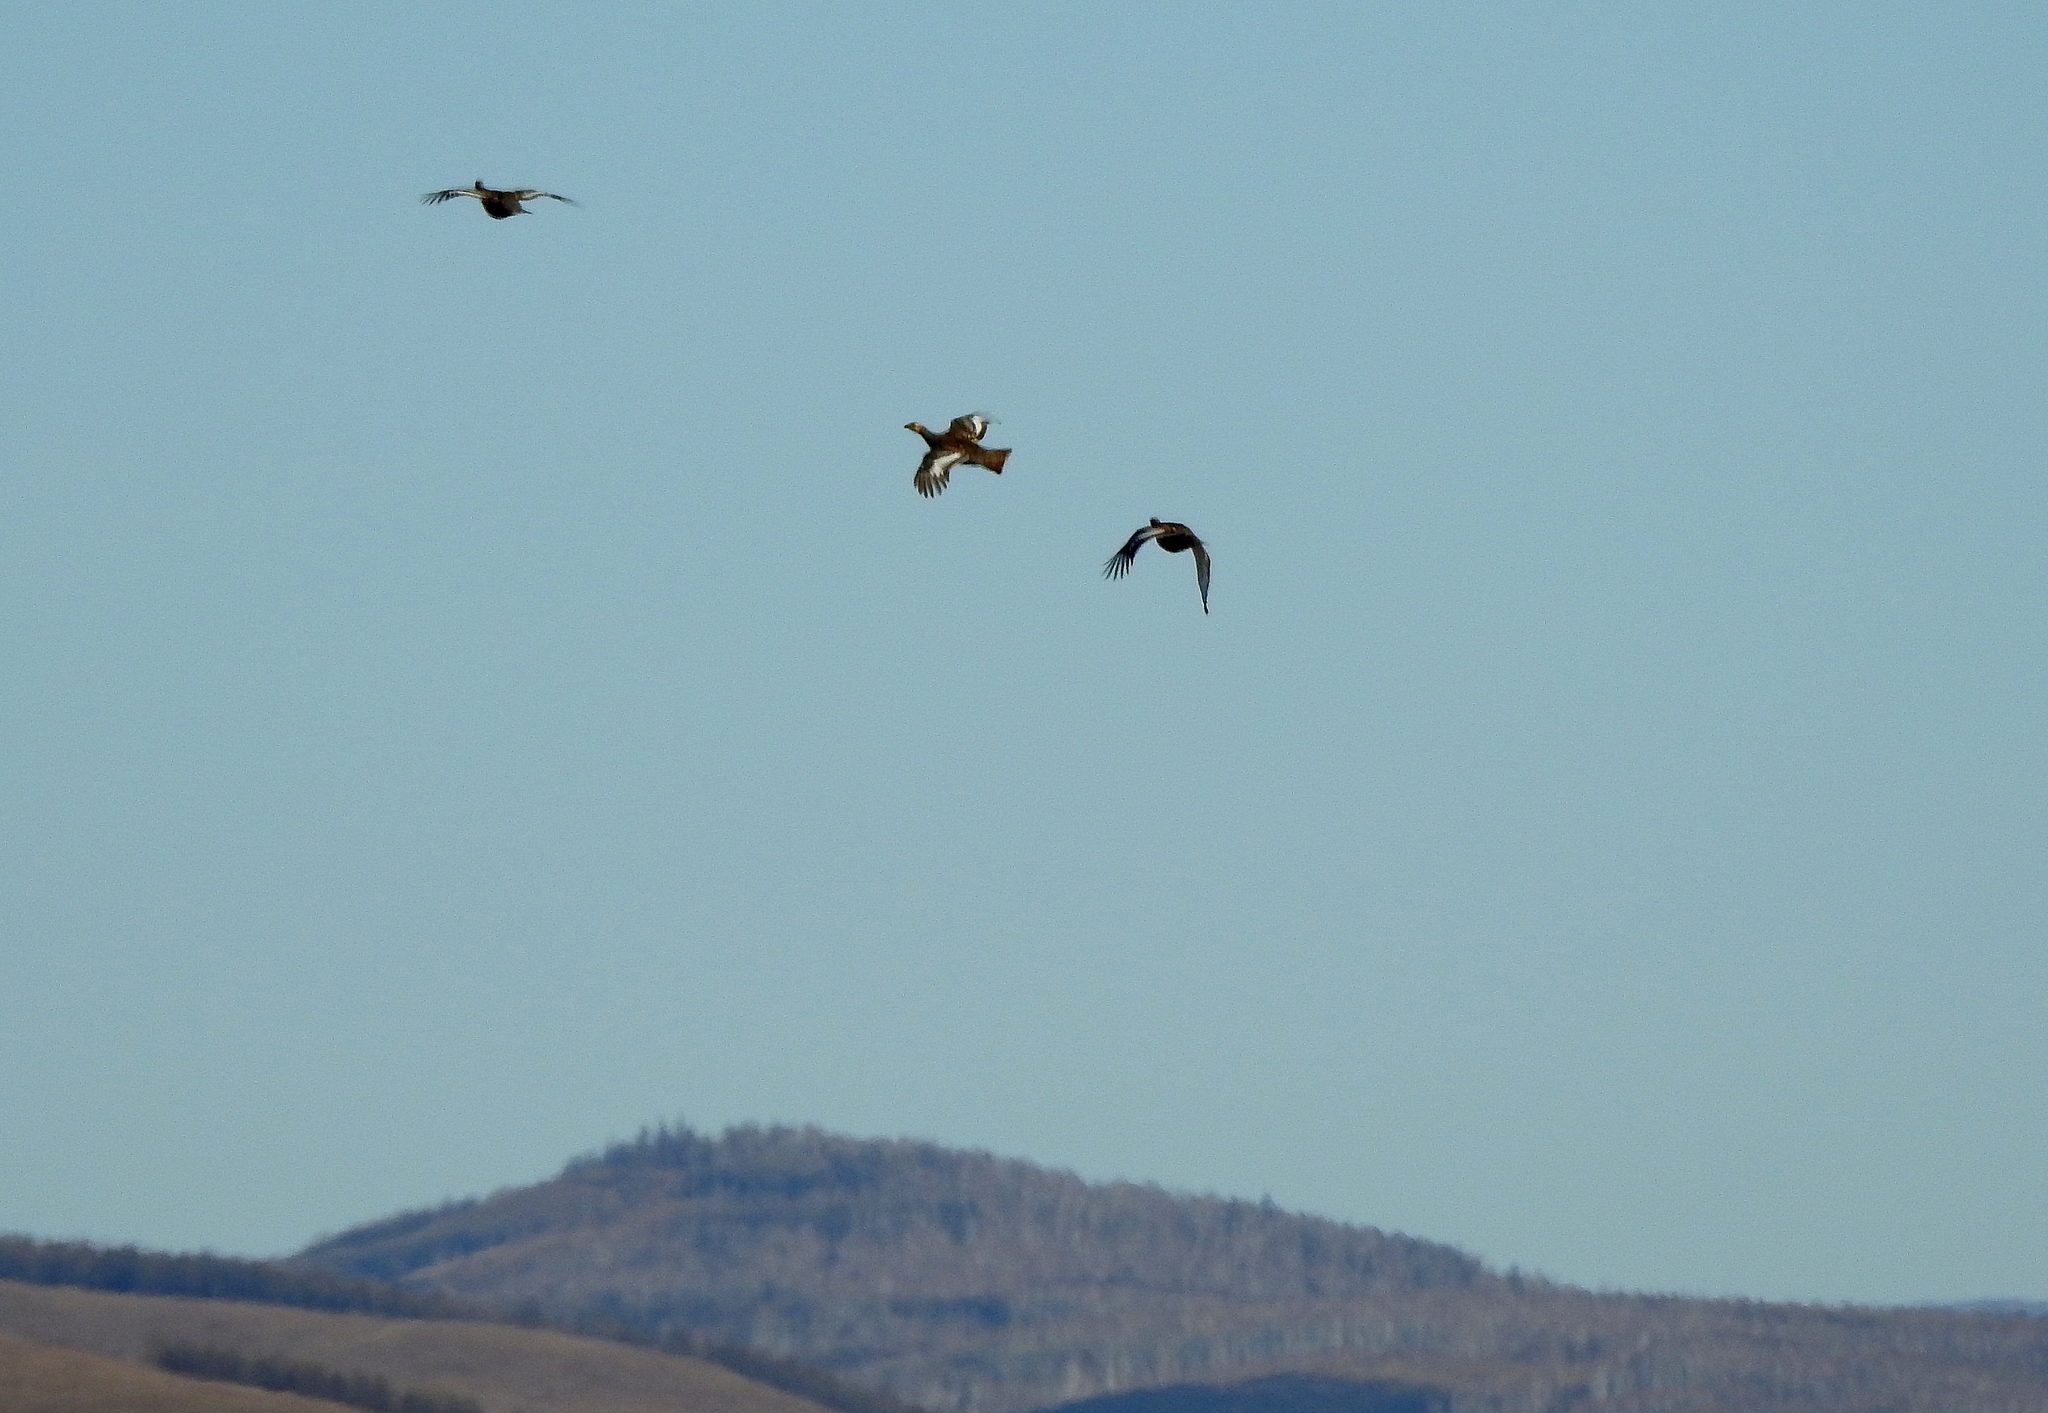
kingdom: Animalia
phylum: Chordata
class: Aves
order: Galliformes
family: Phasianidae
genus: Lyrurus
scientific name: Lyrurus tetrix
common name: Black grouse
